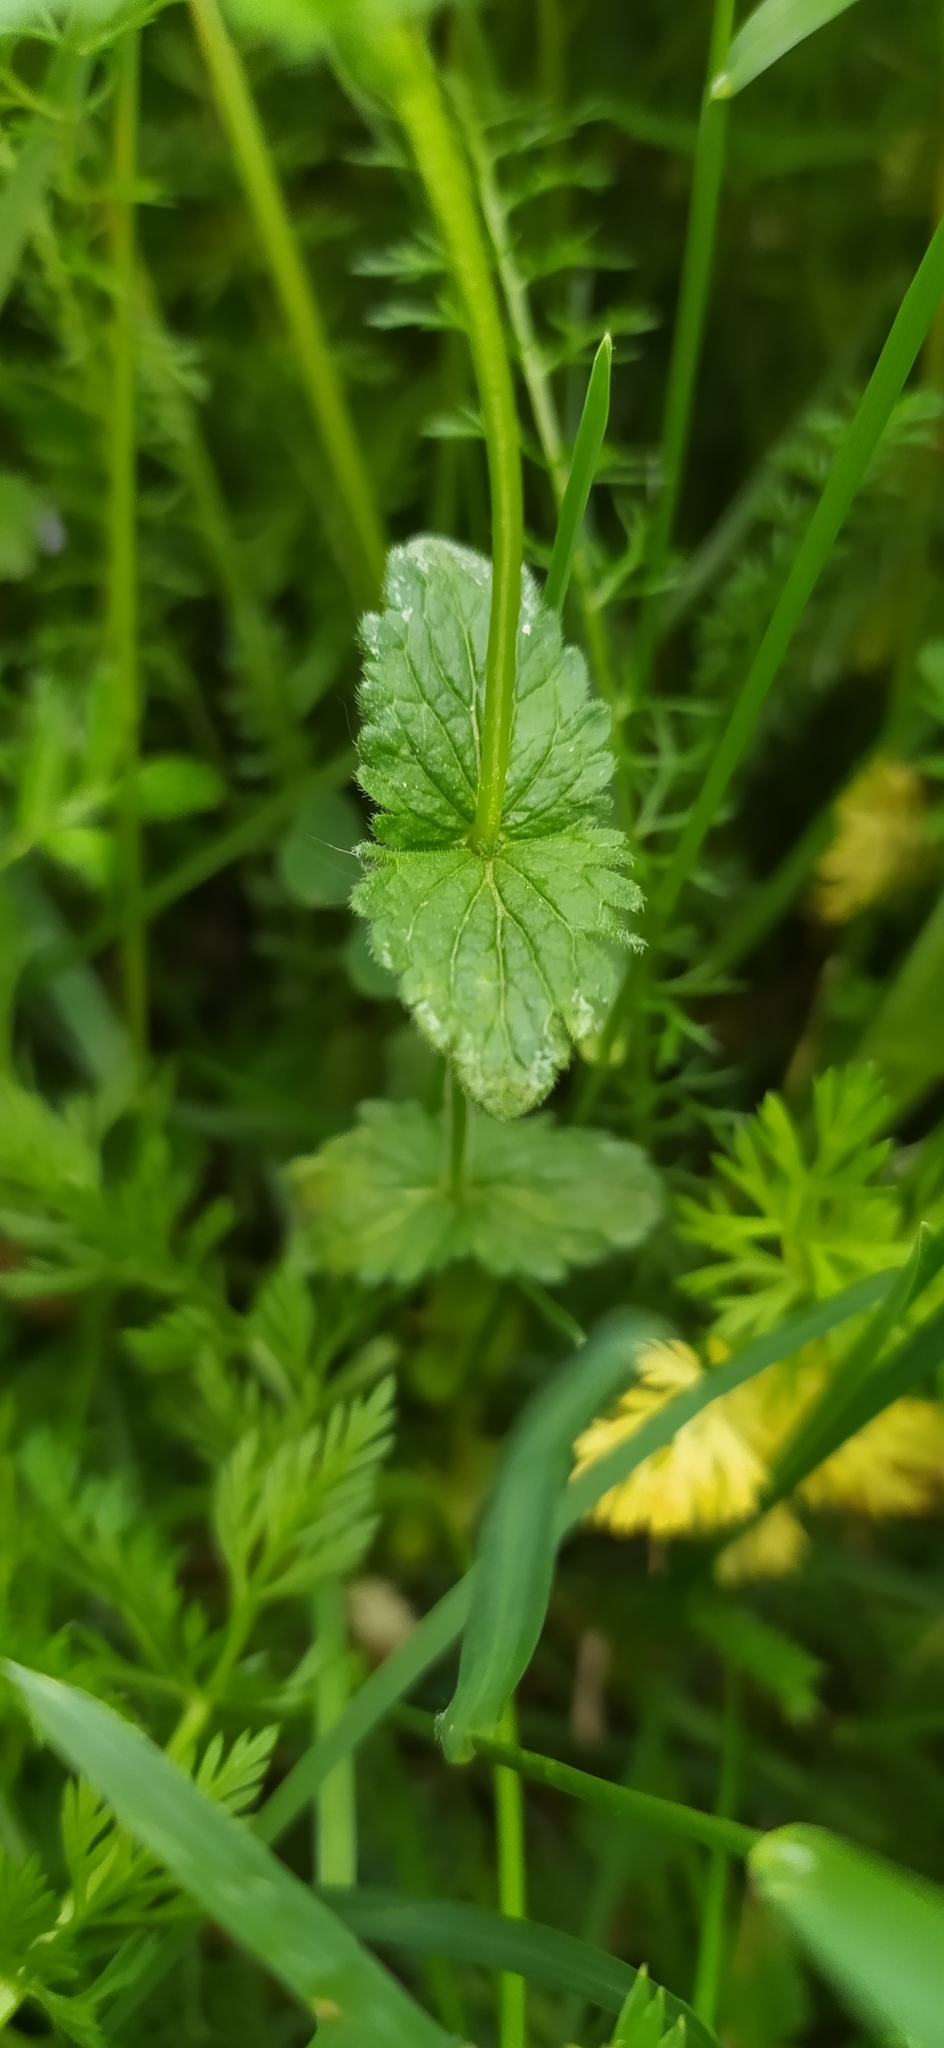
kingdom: Plantae
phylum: Tracheophyta
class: Magnoliopsida
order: Lamiales
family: Plantaginaceae
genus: Veronica
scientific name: Veronica chamaedrys
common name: Germander speedwell
